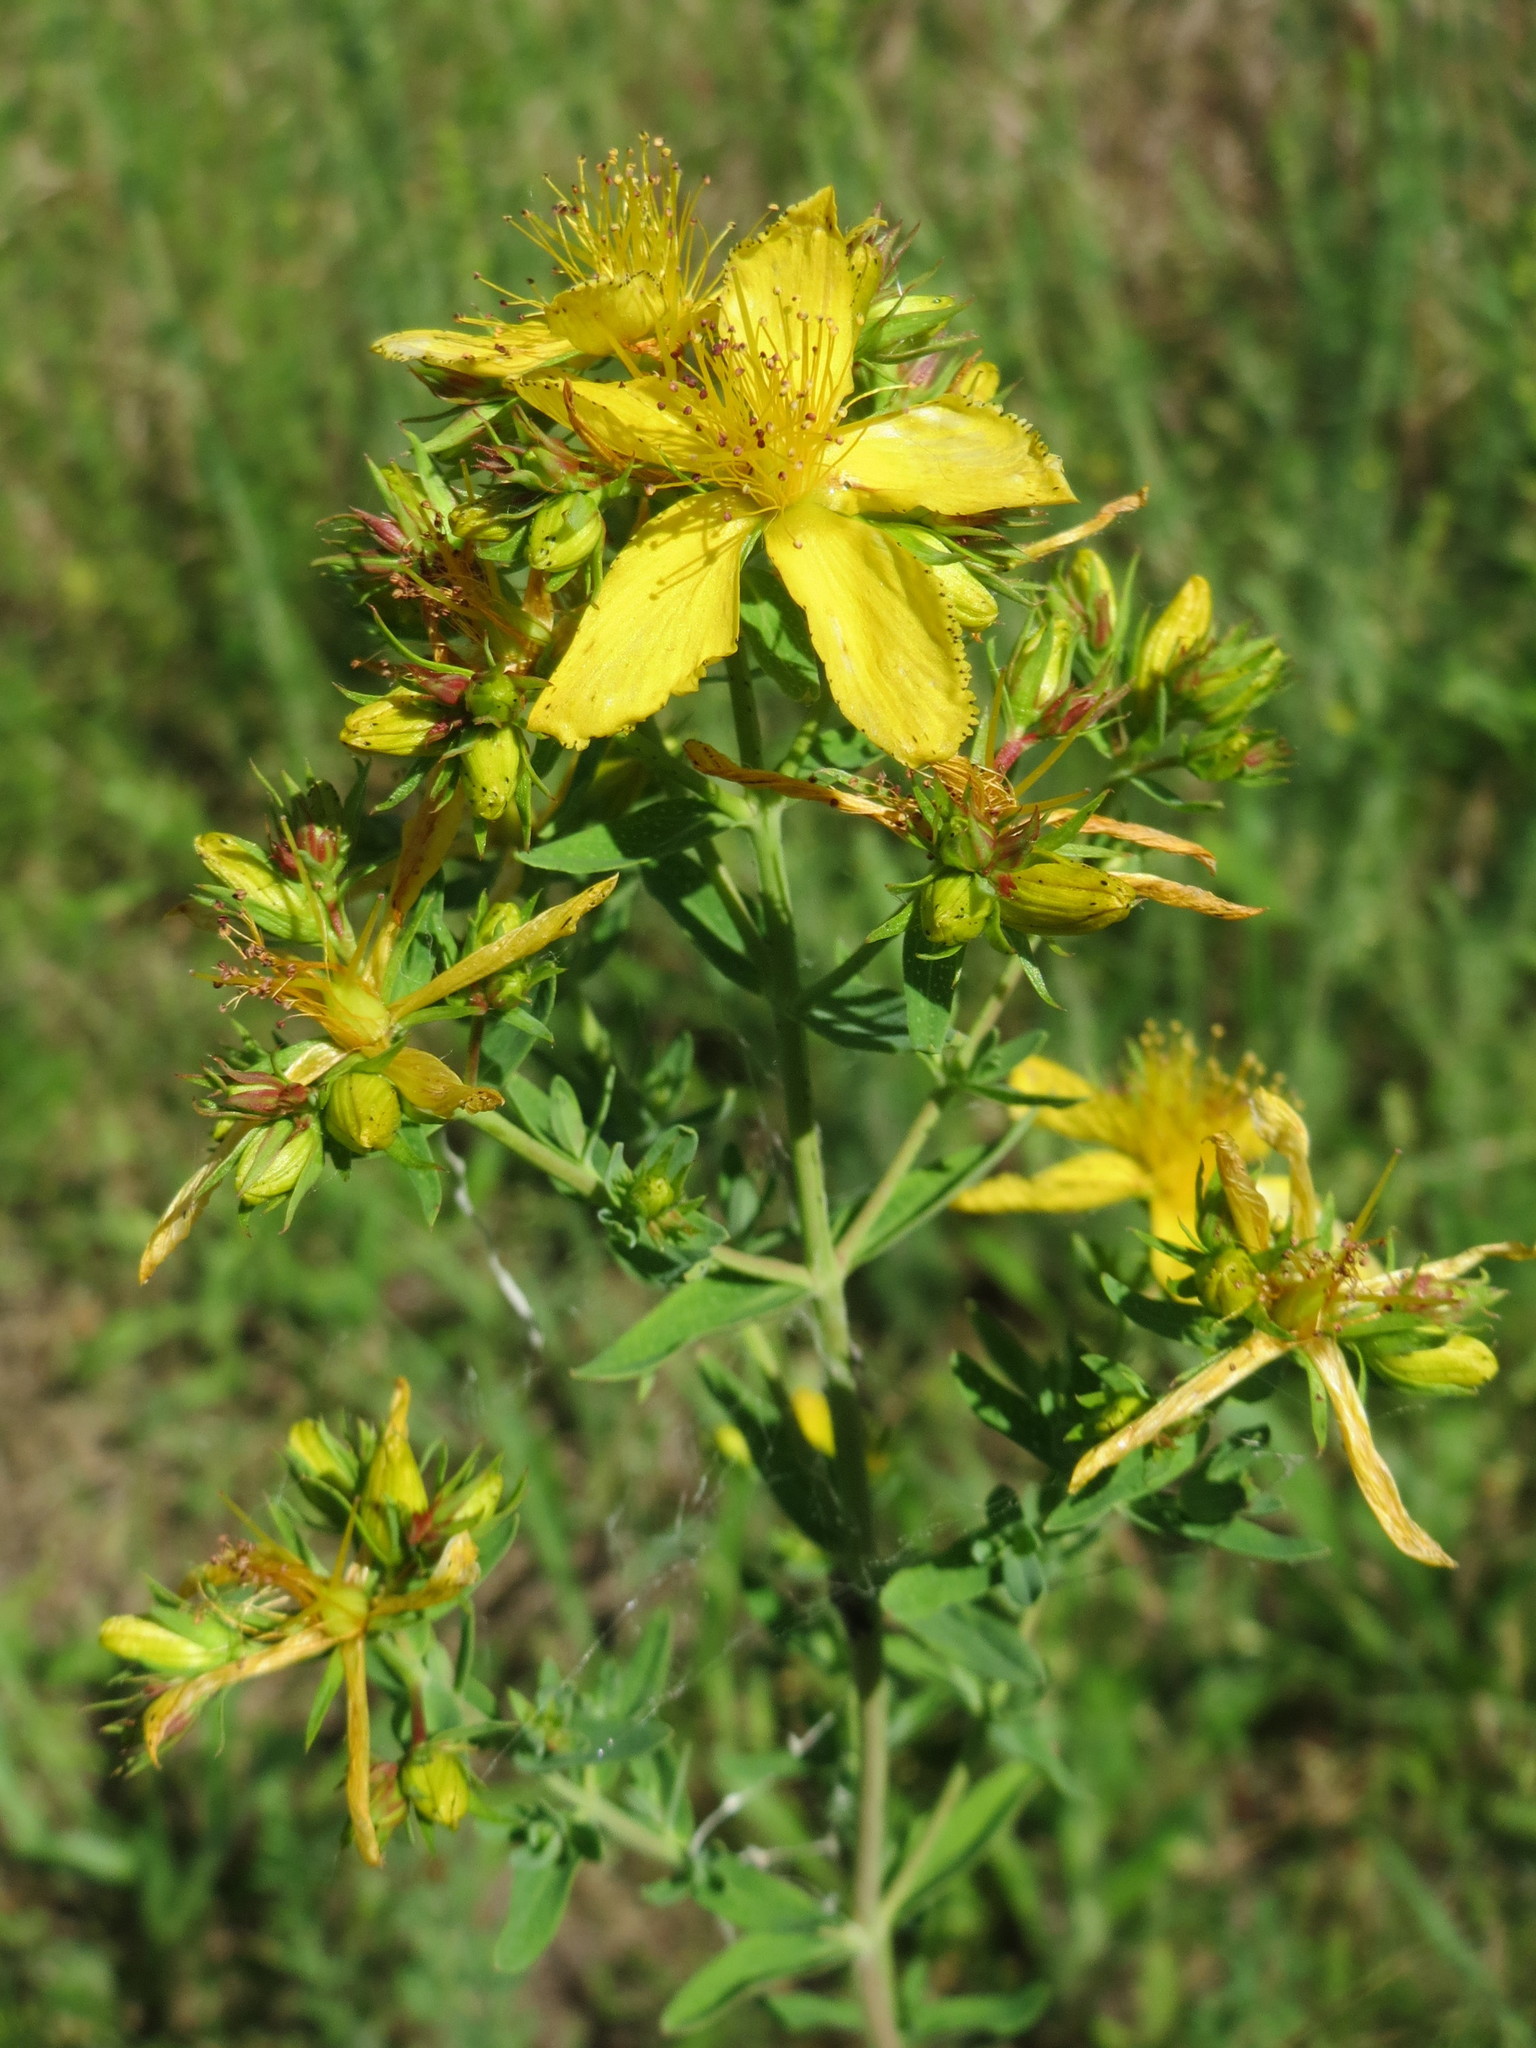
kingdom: Plantae
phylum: Tracheophyta
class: Magnoliopsida
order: Malpighiales
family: Hypericaceae
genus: Hypericum
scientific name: Hypericum perforatum
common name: Common st. johnswort
